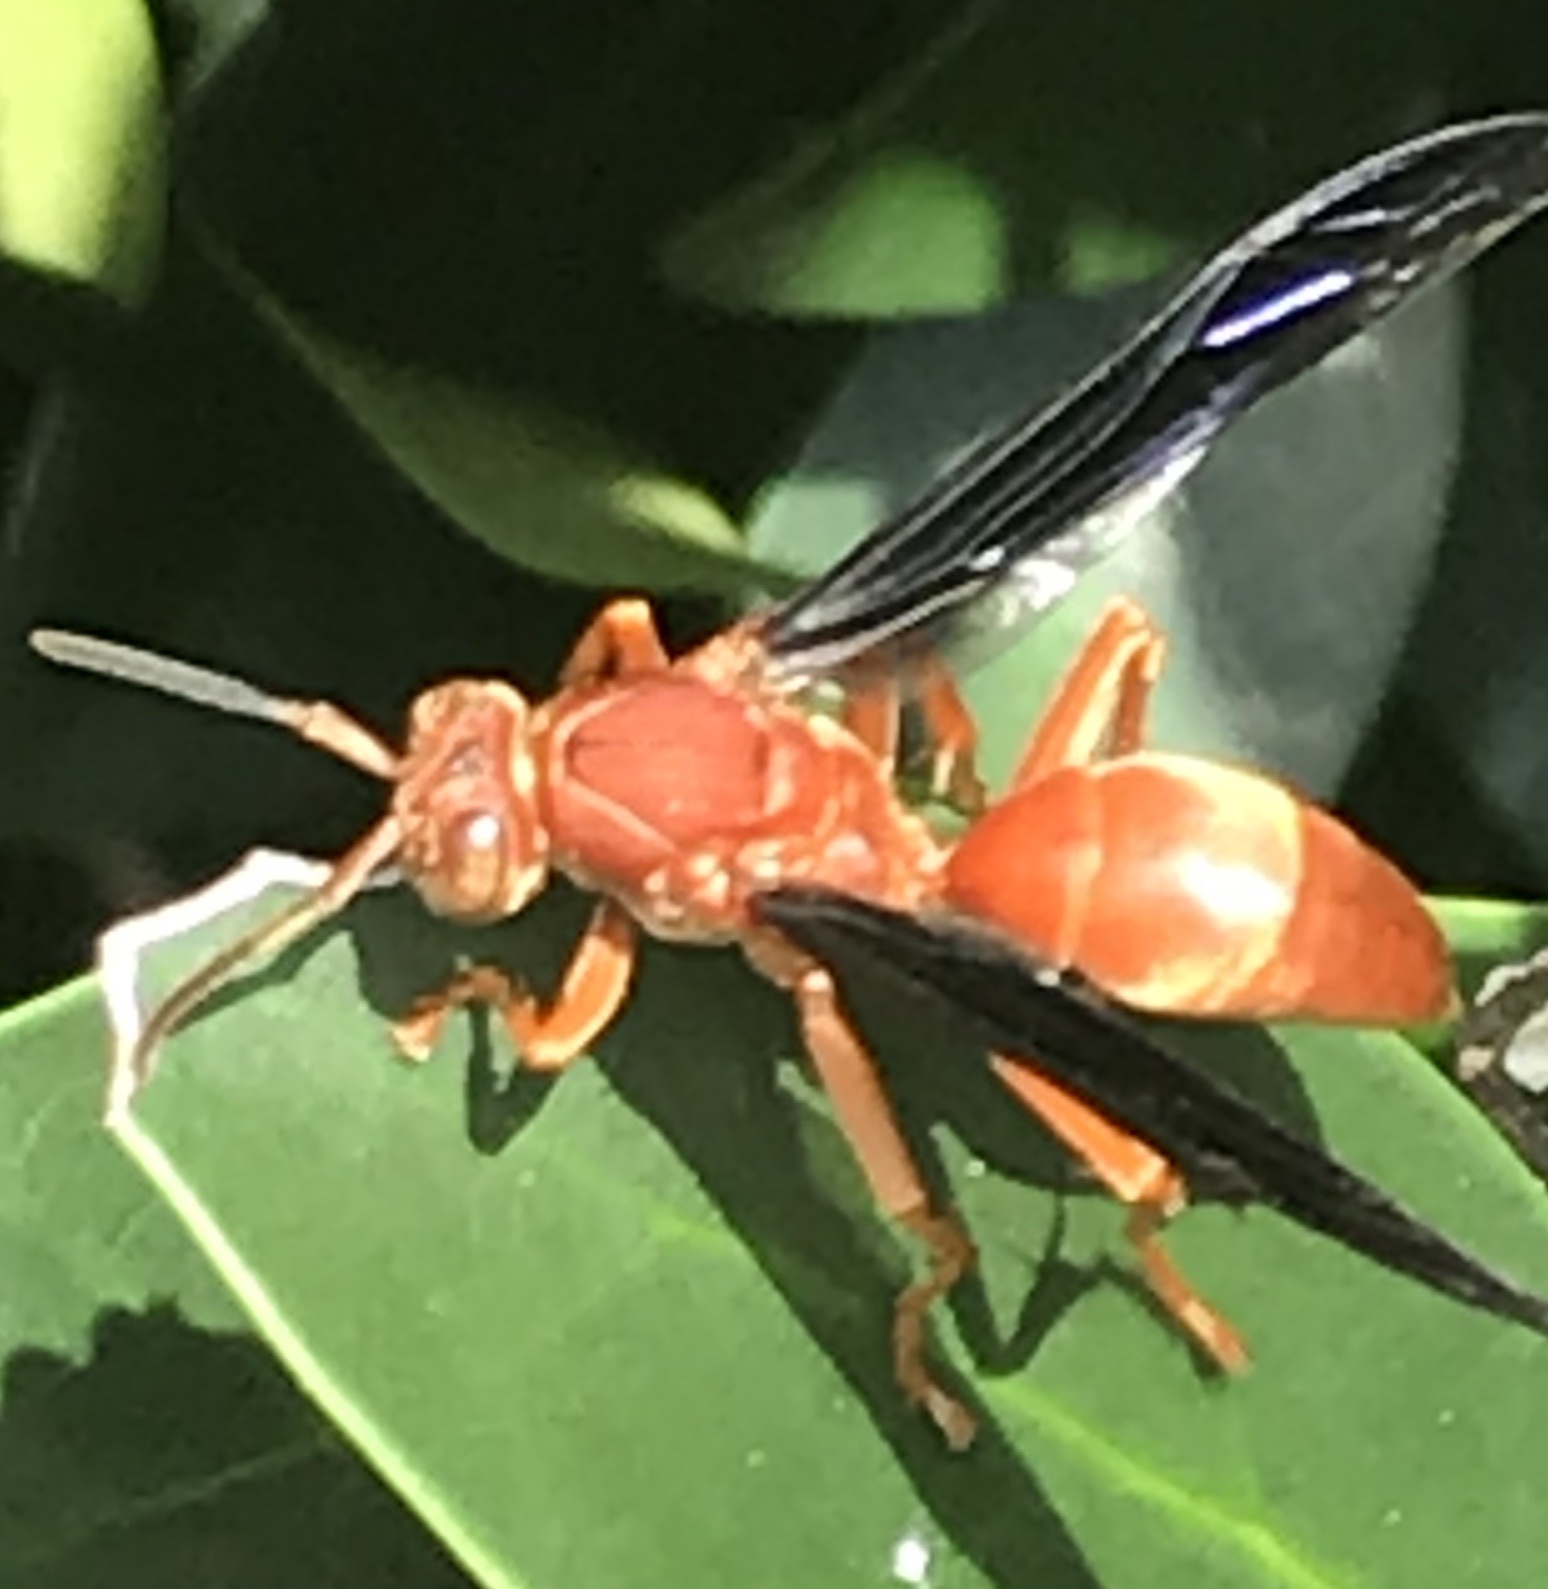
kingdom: Animalia
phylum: Arthropoda
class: Insecta
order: Hymenoptera
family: Eumenidae
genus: Polistes
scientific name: Polistes carolina
